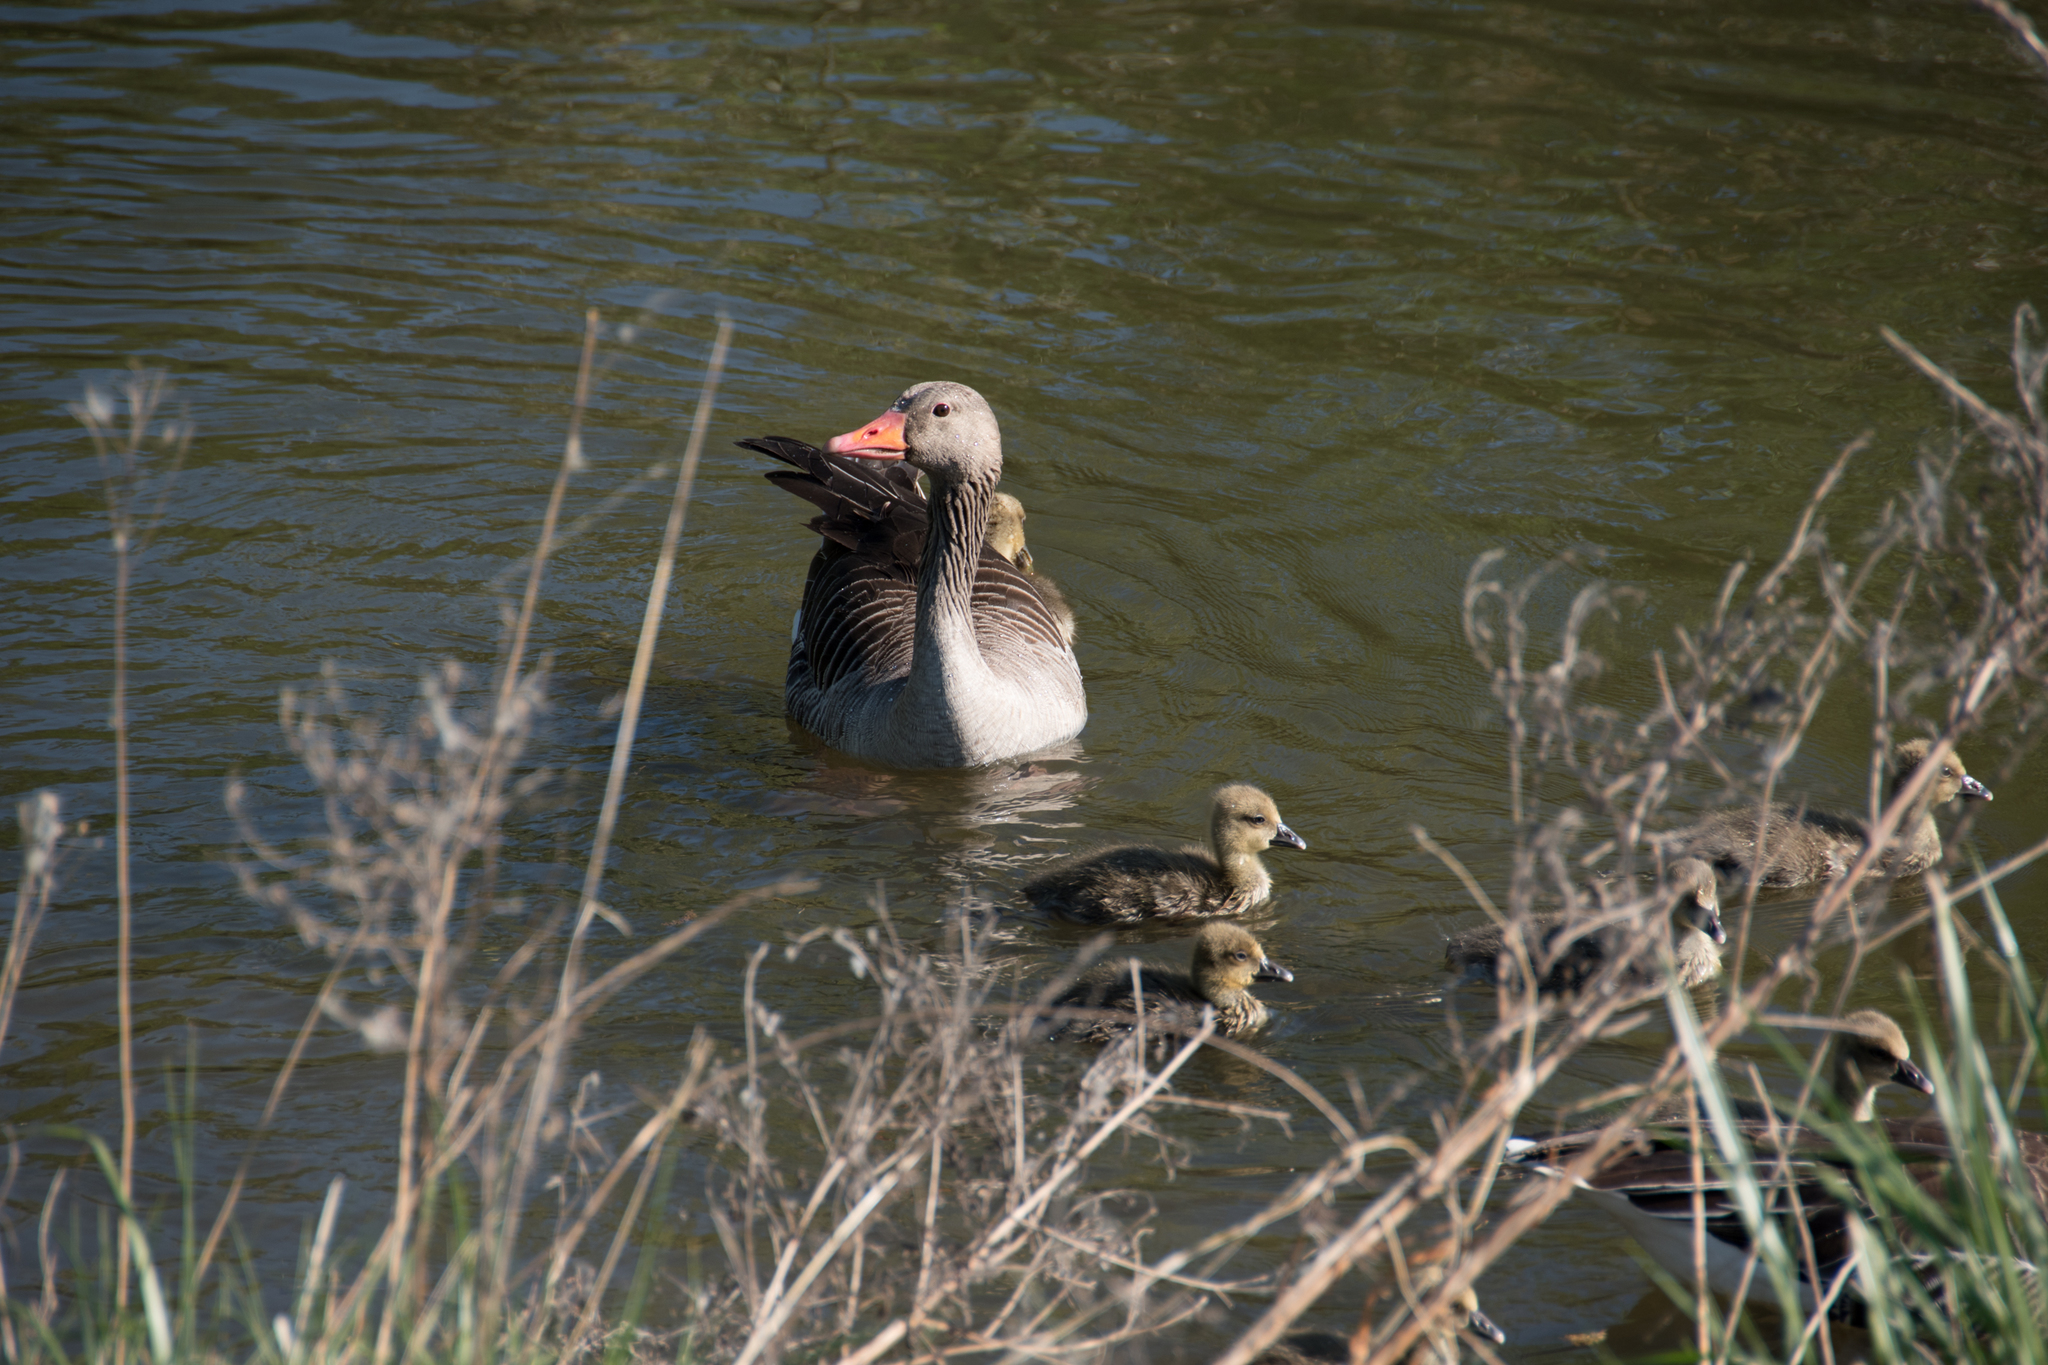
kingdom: Animalia
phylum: Chordata
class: Aves
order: Anseriformes
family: Anatidae
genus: Anser
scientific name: Anser anser
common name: Greylag goose
